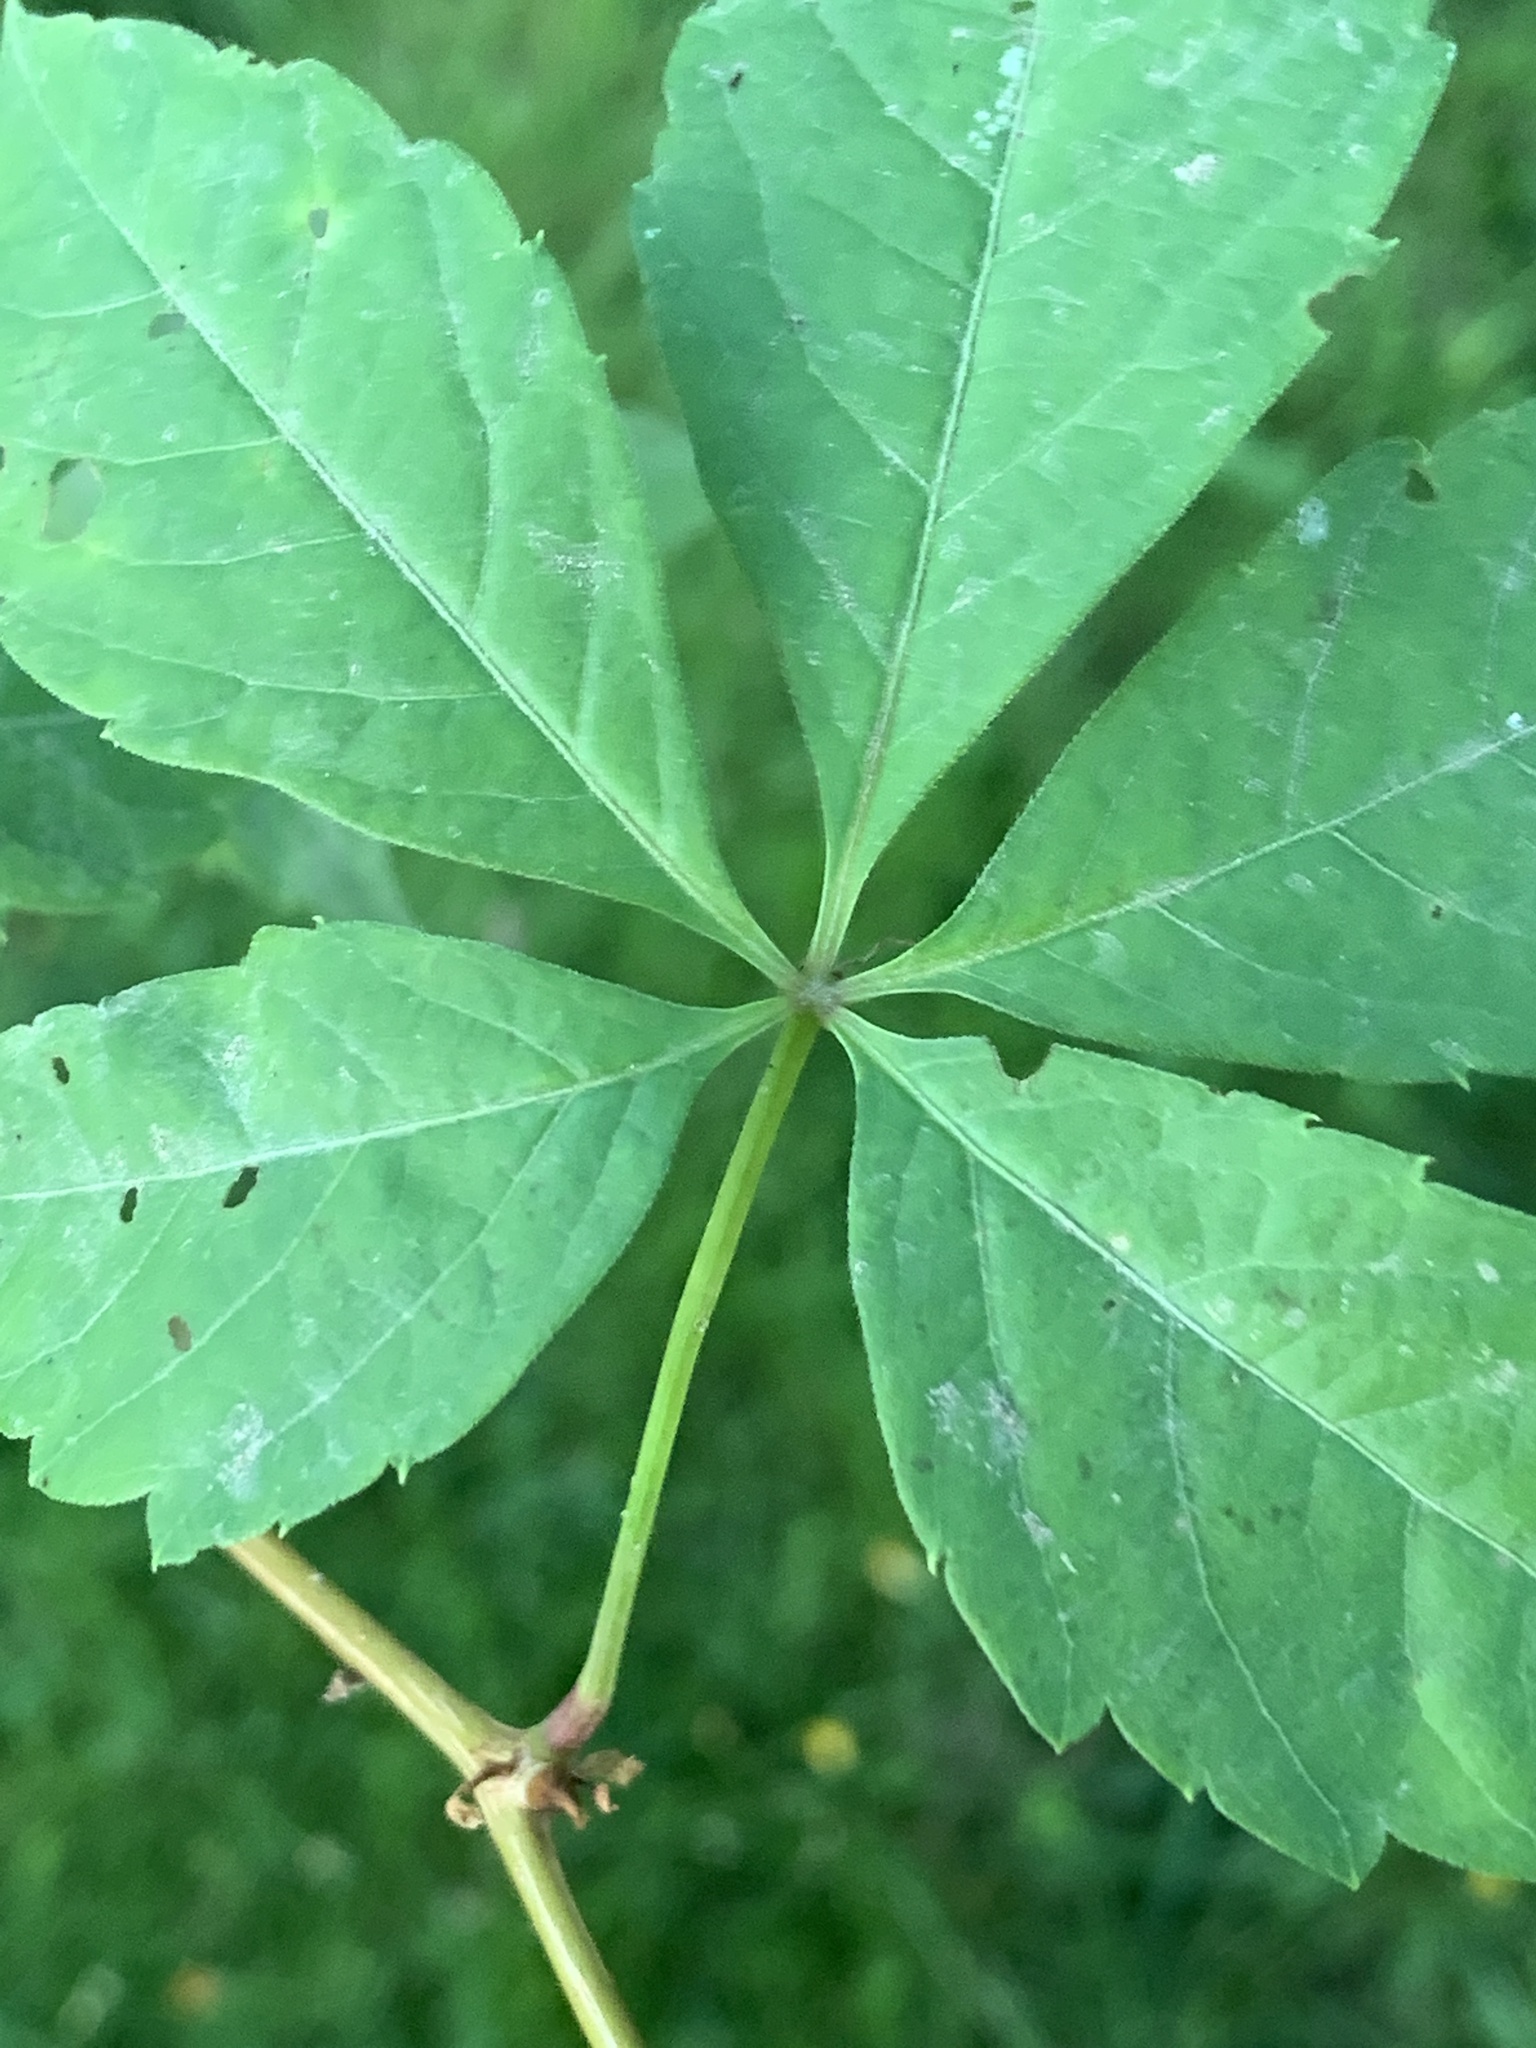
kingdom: Plantae
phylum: Tracheophyta
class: Magnoliopsida
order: Vitales
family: Vitaceae
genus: Parthenocissus
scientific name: Parthenocissus quinquefolia
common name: Virginia-creeper
